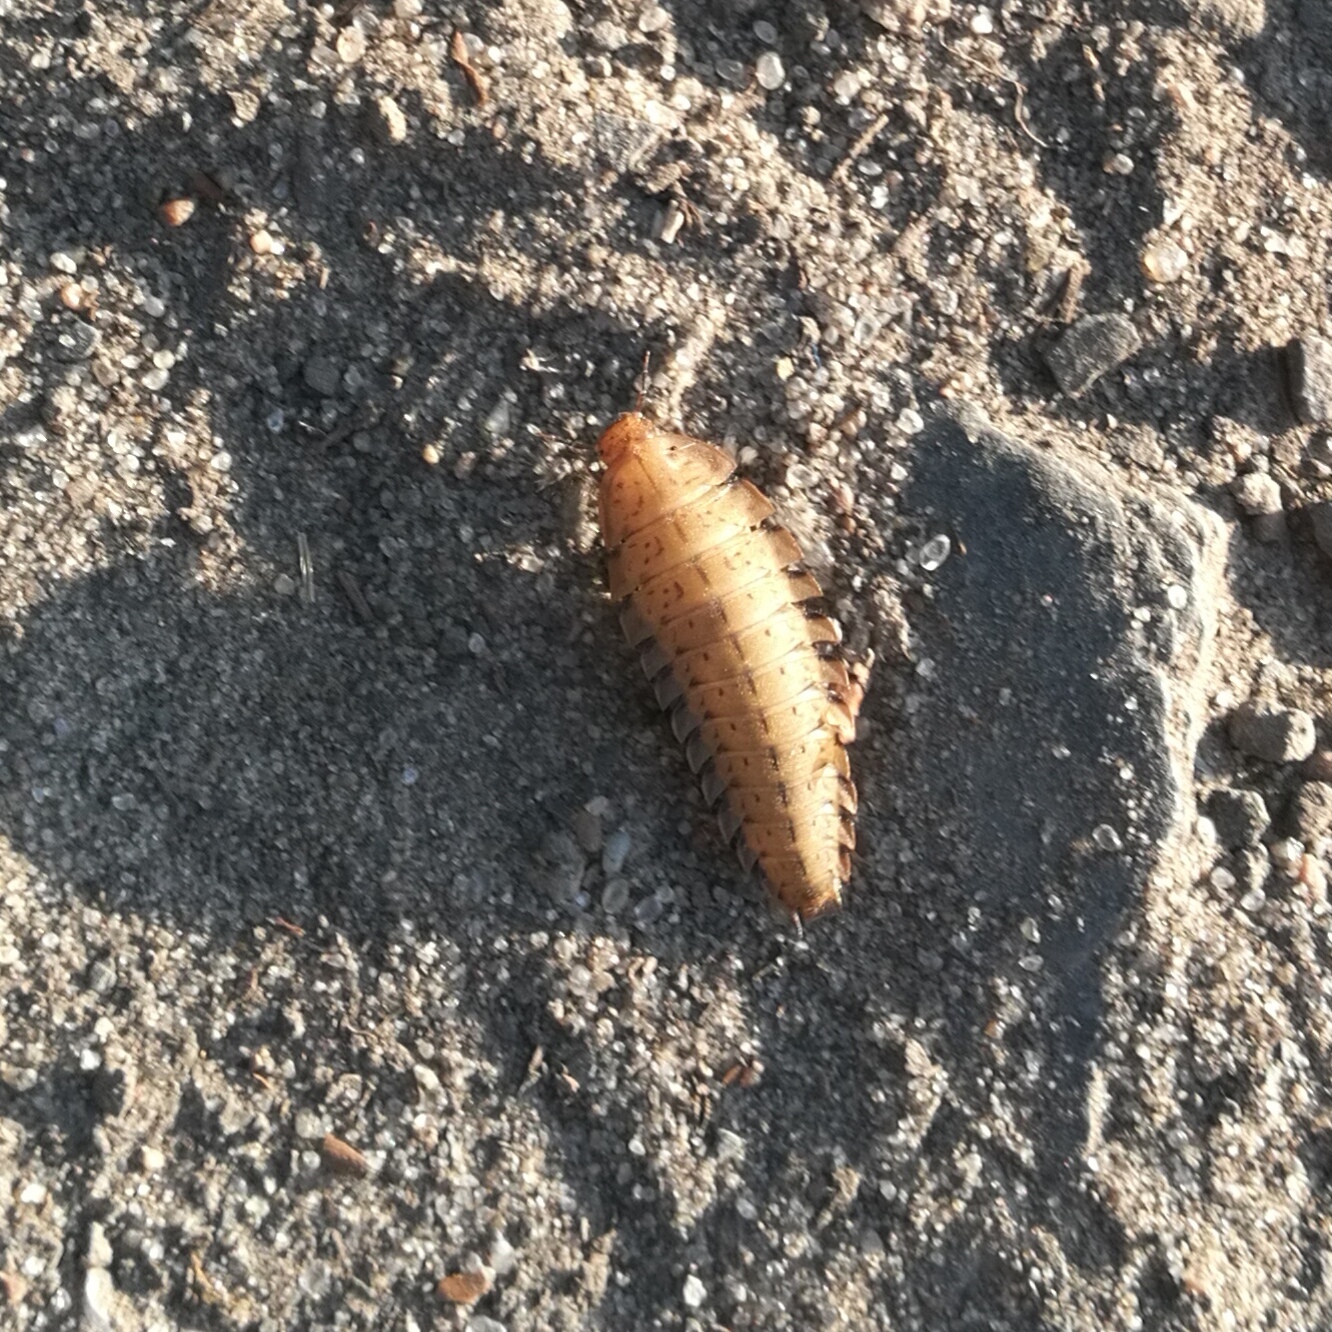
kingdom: Animalia
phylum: Arthropoda
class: Insecta
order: Coleoptera
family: Staphylinidae
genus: Silpha
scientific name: Silpha obscura
